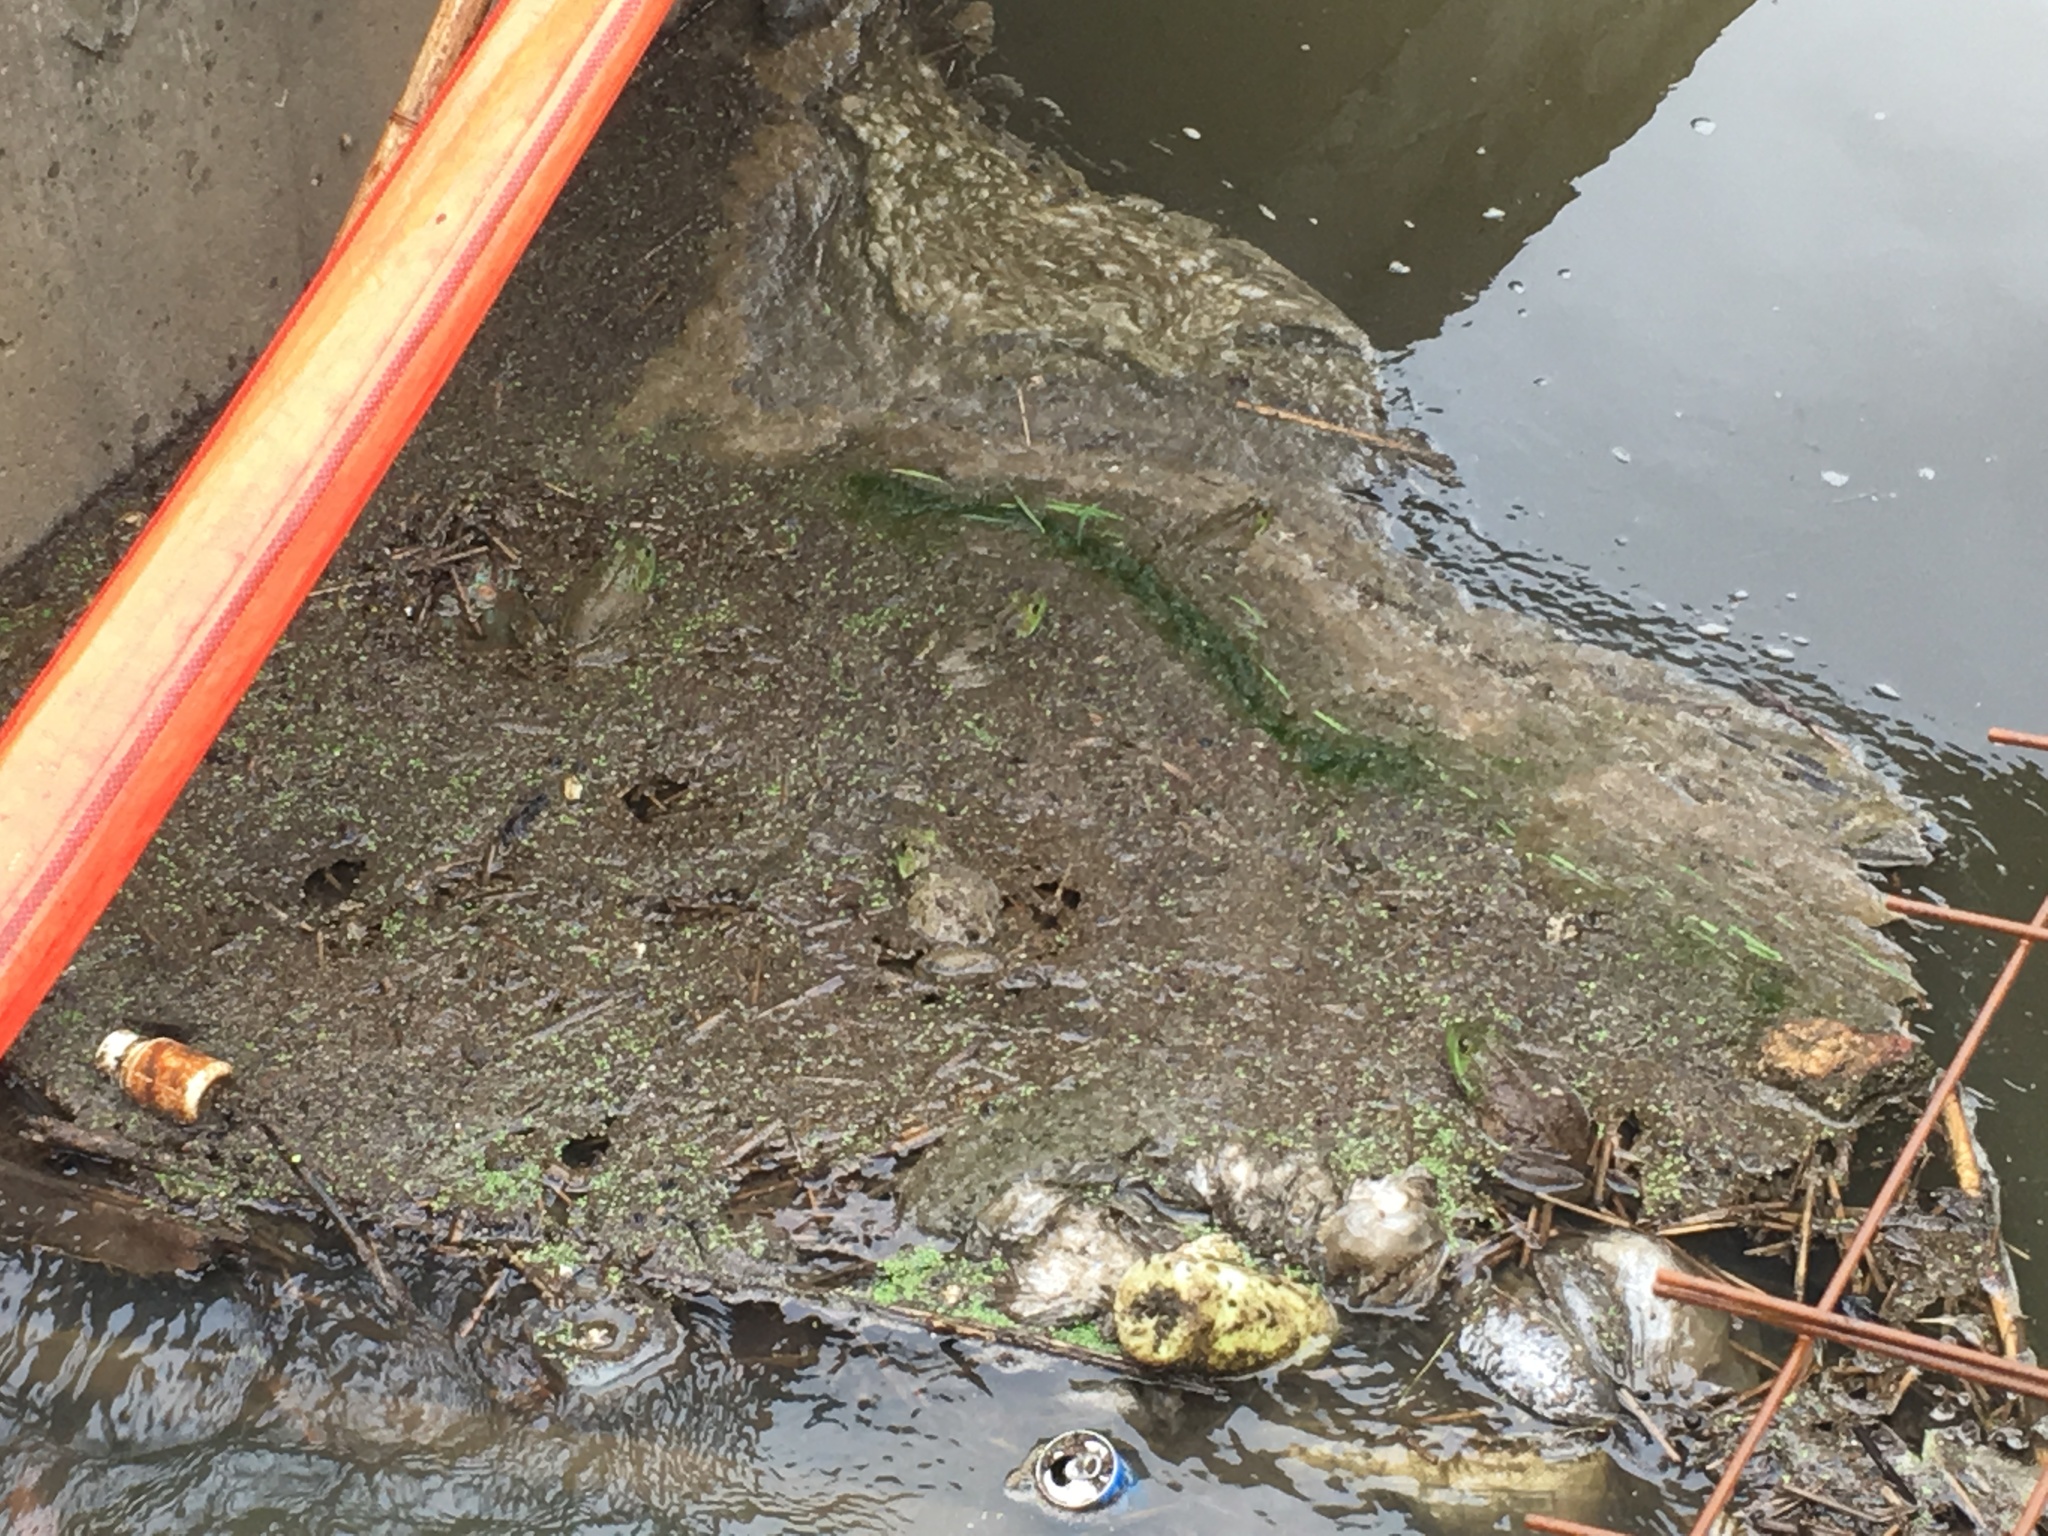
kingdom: Animalia
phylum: Chordata
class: Amphibia
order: Anura
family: Ranidae
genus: Lithobates
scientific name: Lithobates catesbeianus
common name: American bullfrog
